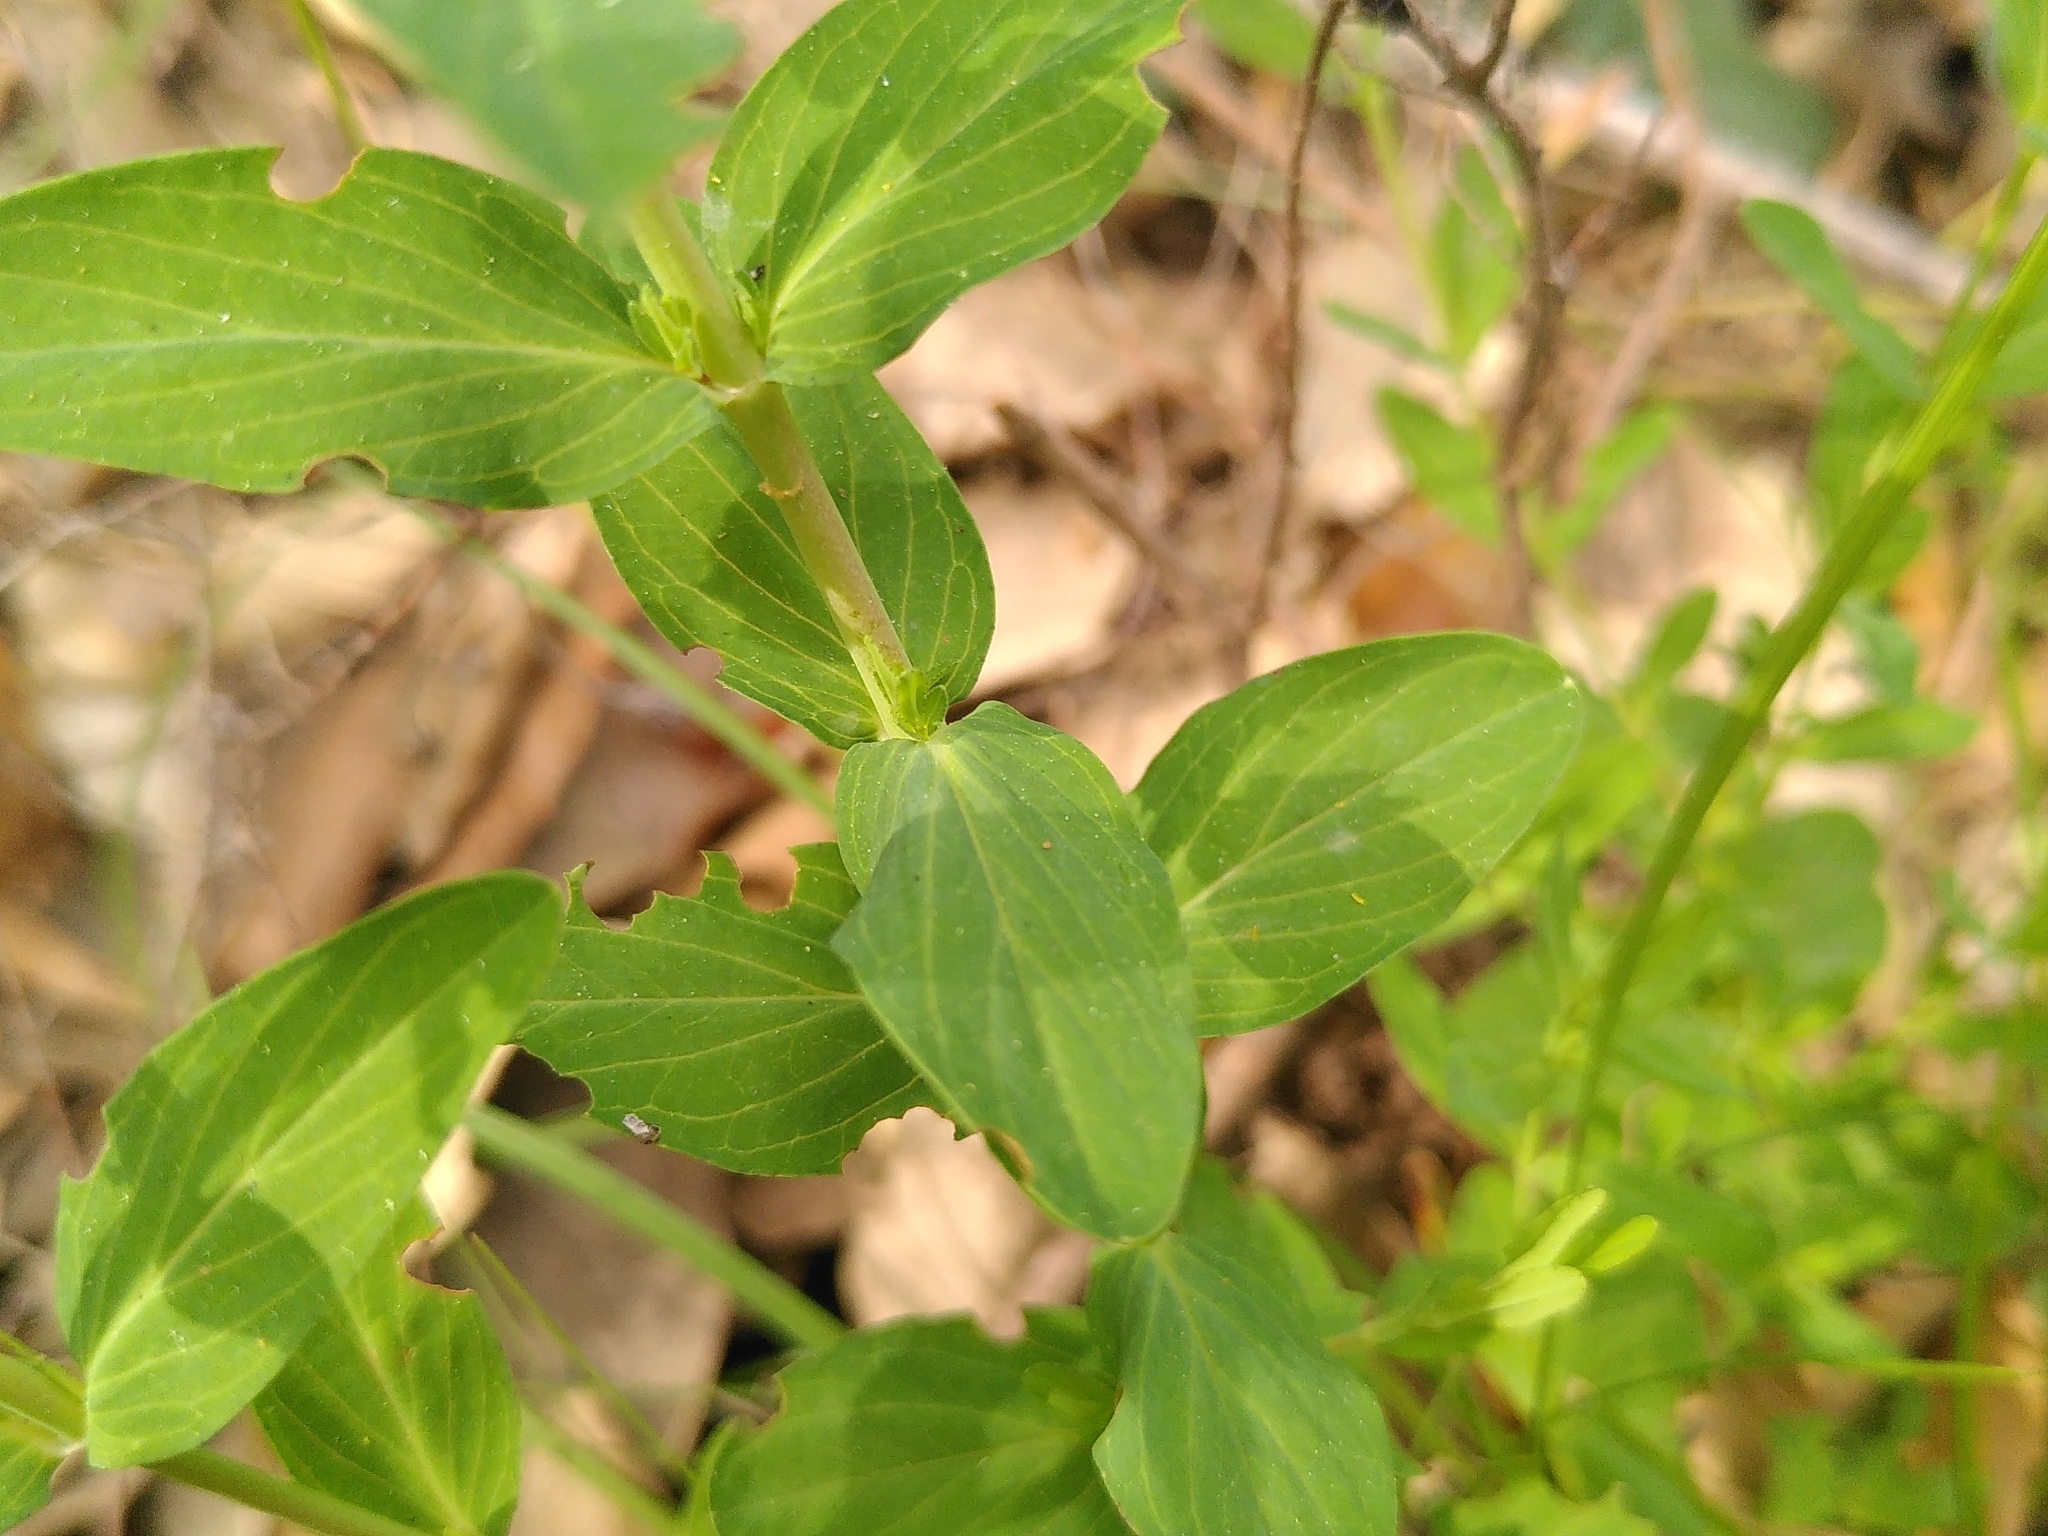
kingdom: Plantae
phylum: Tracheophyta
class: Magnoliopsida
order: Malpighiales
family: Hypericaceae
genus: Hypericum
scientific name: Hypericum australe
